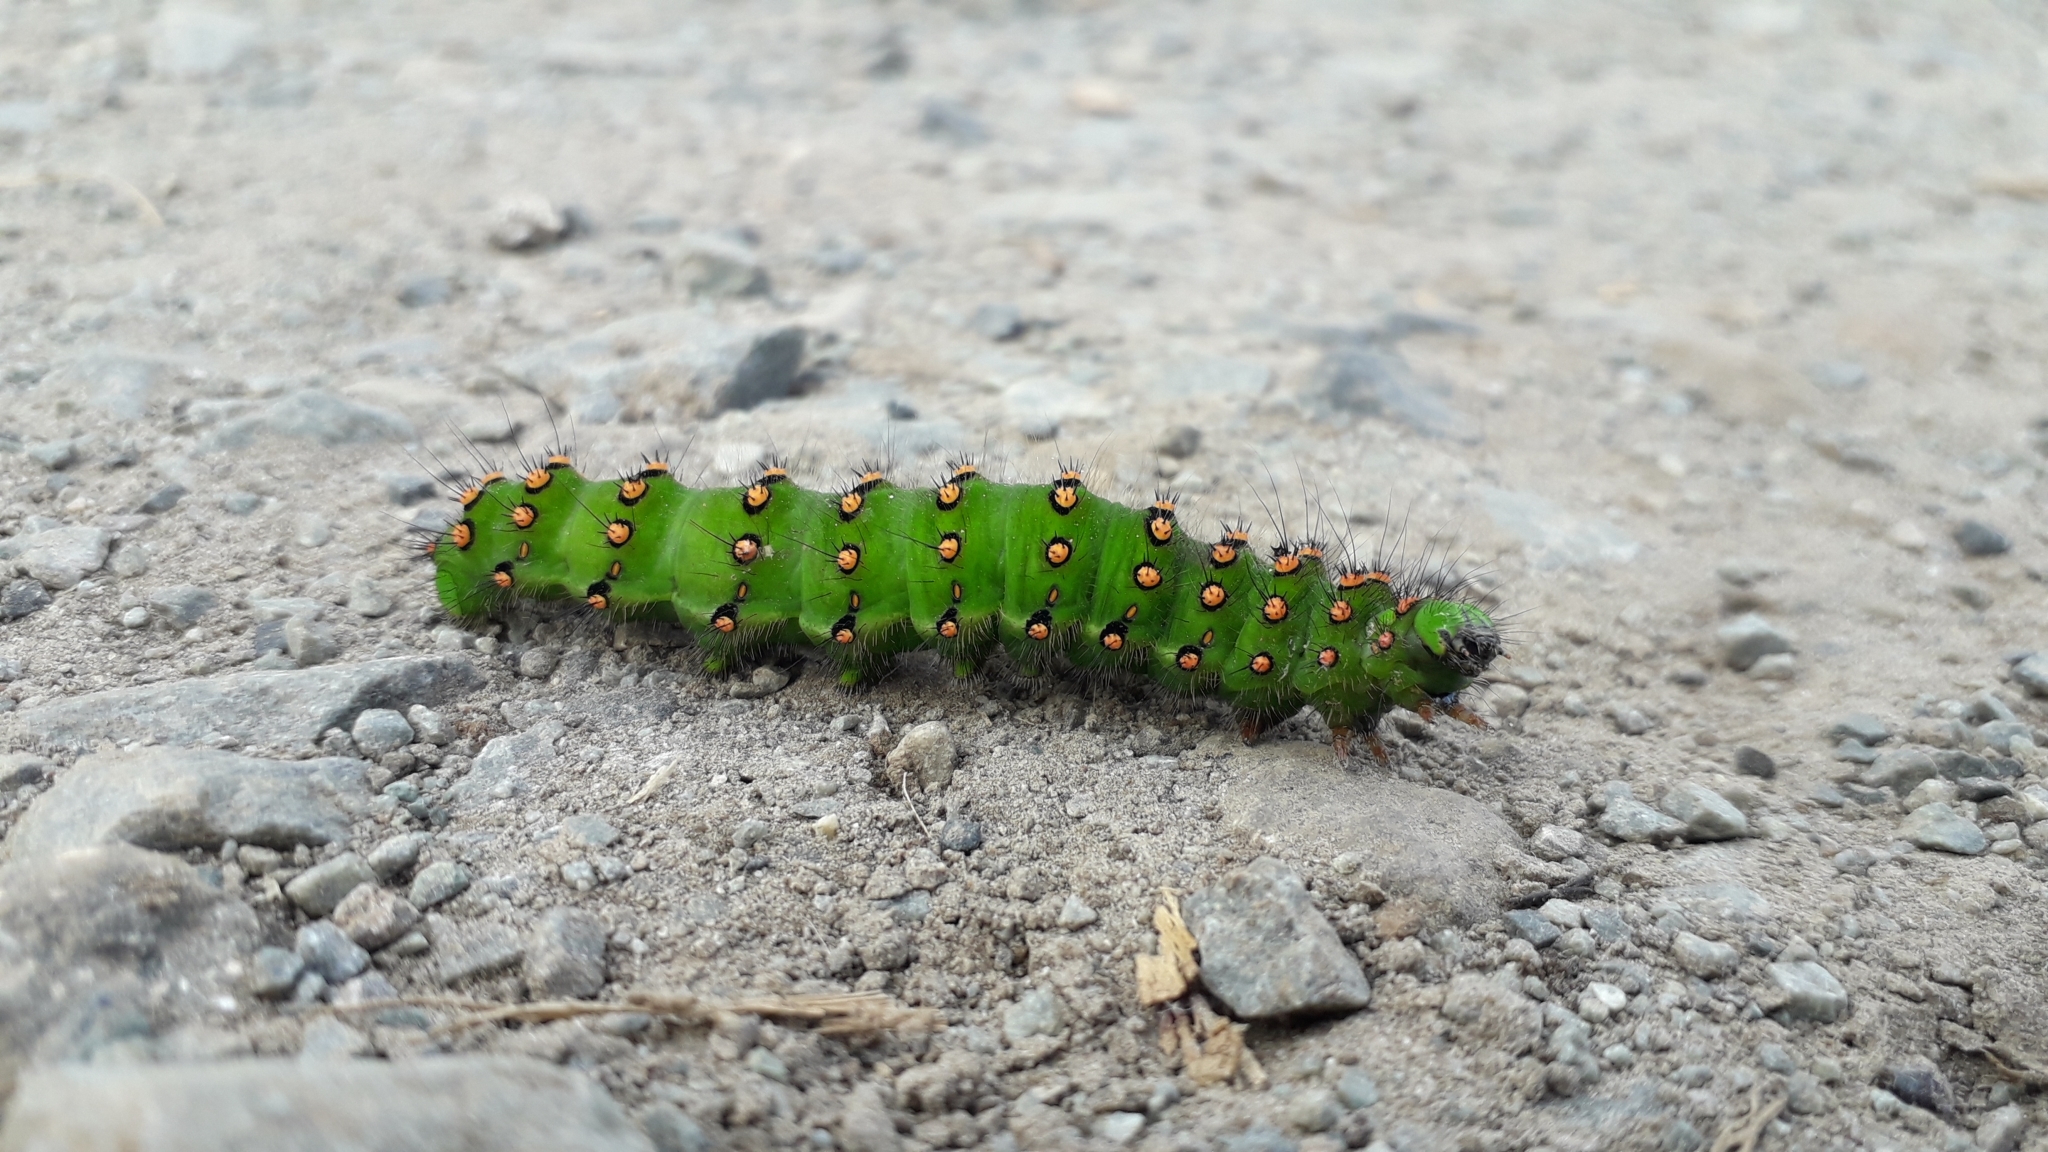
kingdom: Animalia
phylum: Arthropoda
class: Insecta
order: Lepidoptera
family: Saturniidae
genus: Saturnia
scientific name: Saturnia pavonia
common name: Emperor moth
